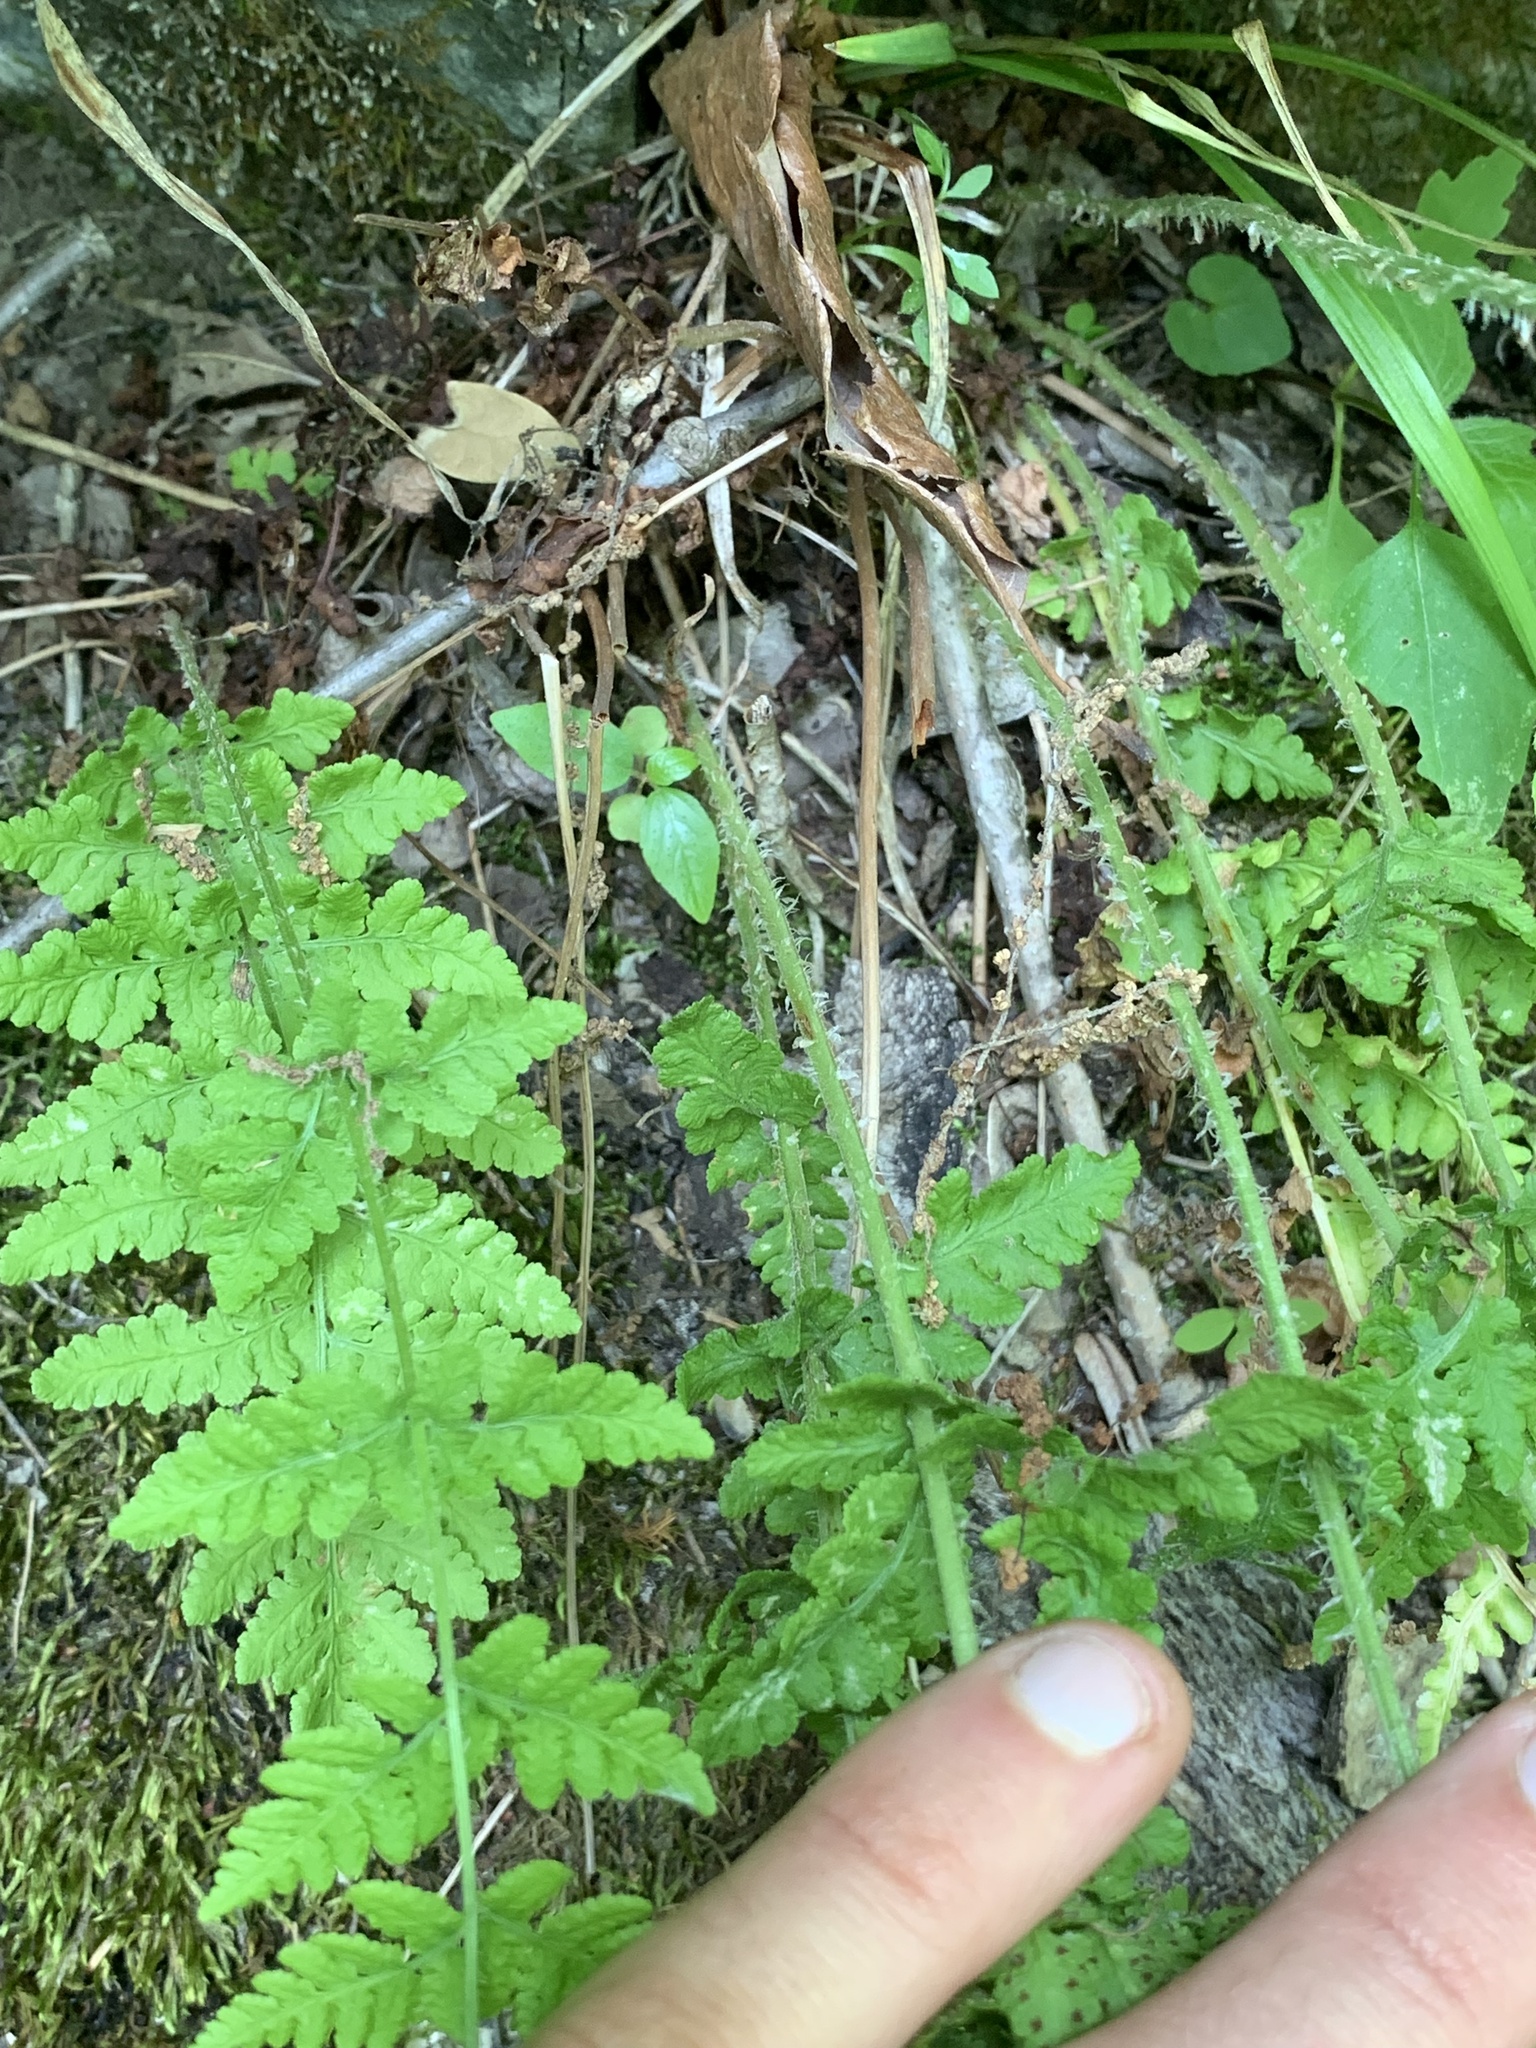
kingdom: Plantae
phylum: Tracheophyta
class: Polypodiopsida
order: Polypodiales
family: Woodsiaceae
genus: Physematium
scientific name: Physematium obtusum
